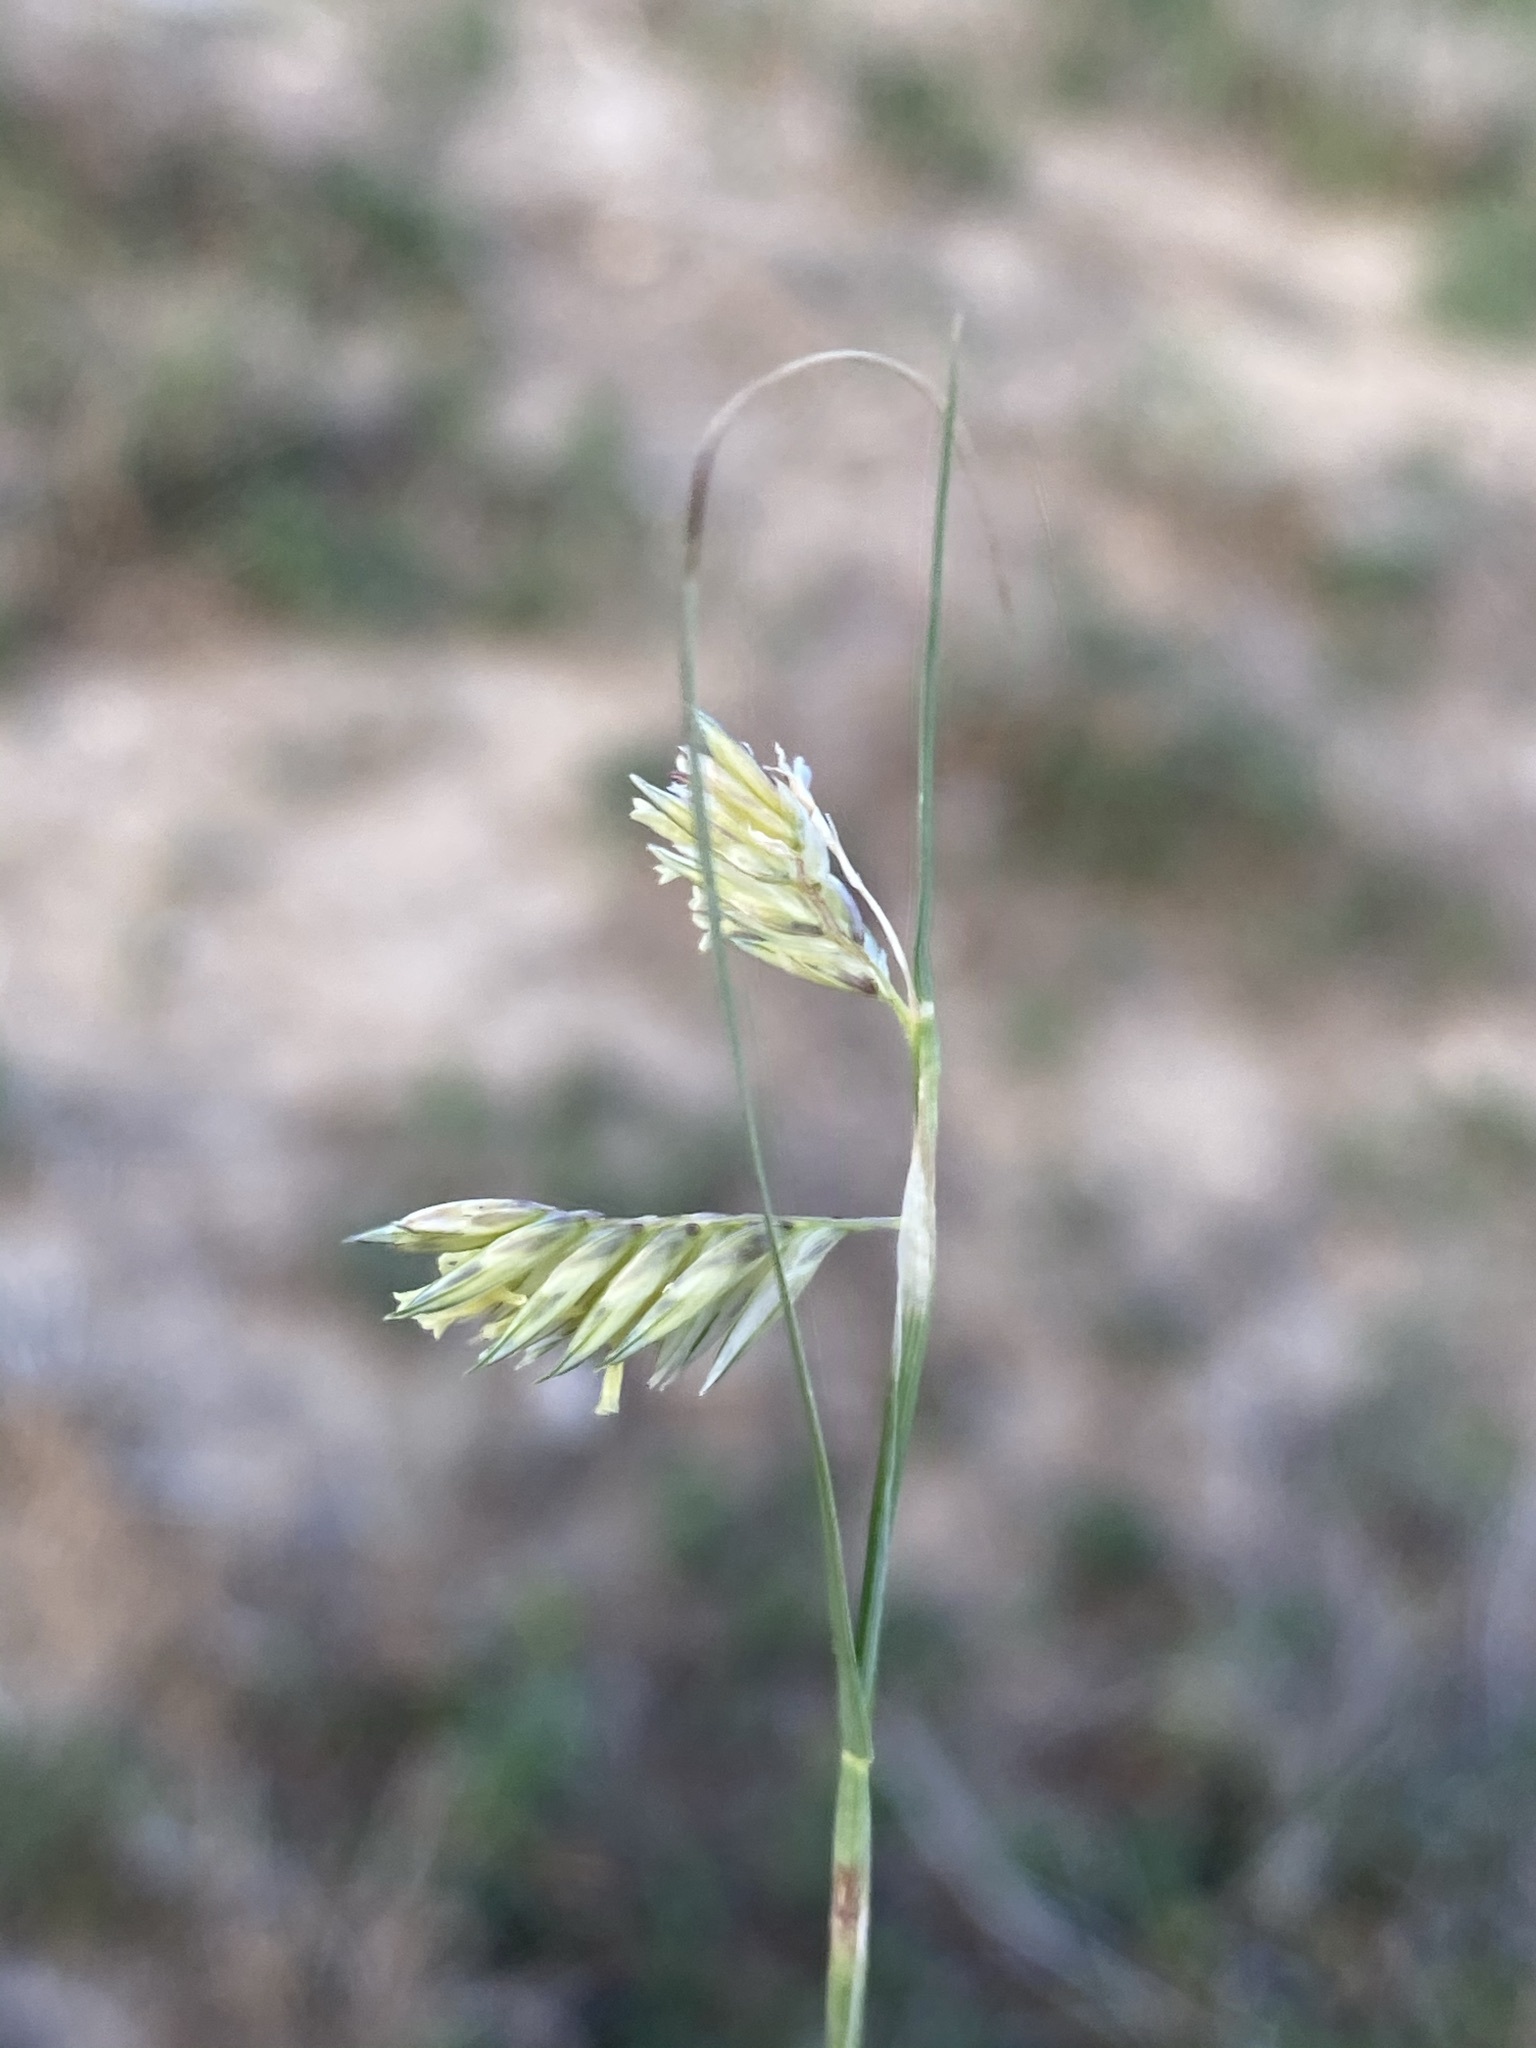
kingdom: Plantae
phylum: Tracheophyta
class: Liliopsida
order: Poales
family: Poaceae
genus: Bouteloua
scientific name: Bouteloua dactyloides
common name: Buffalo grass
